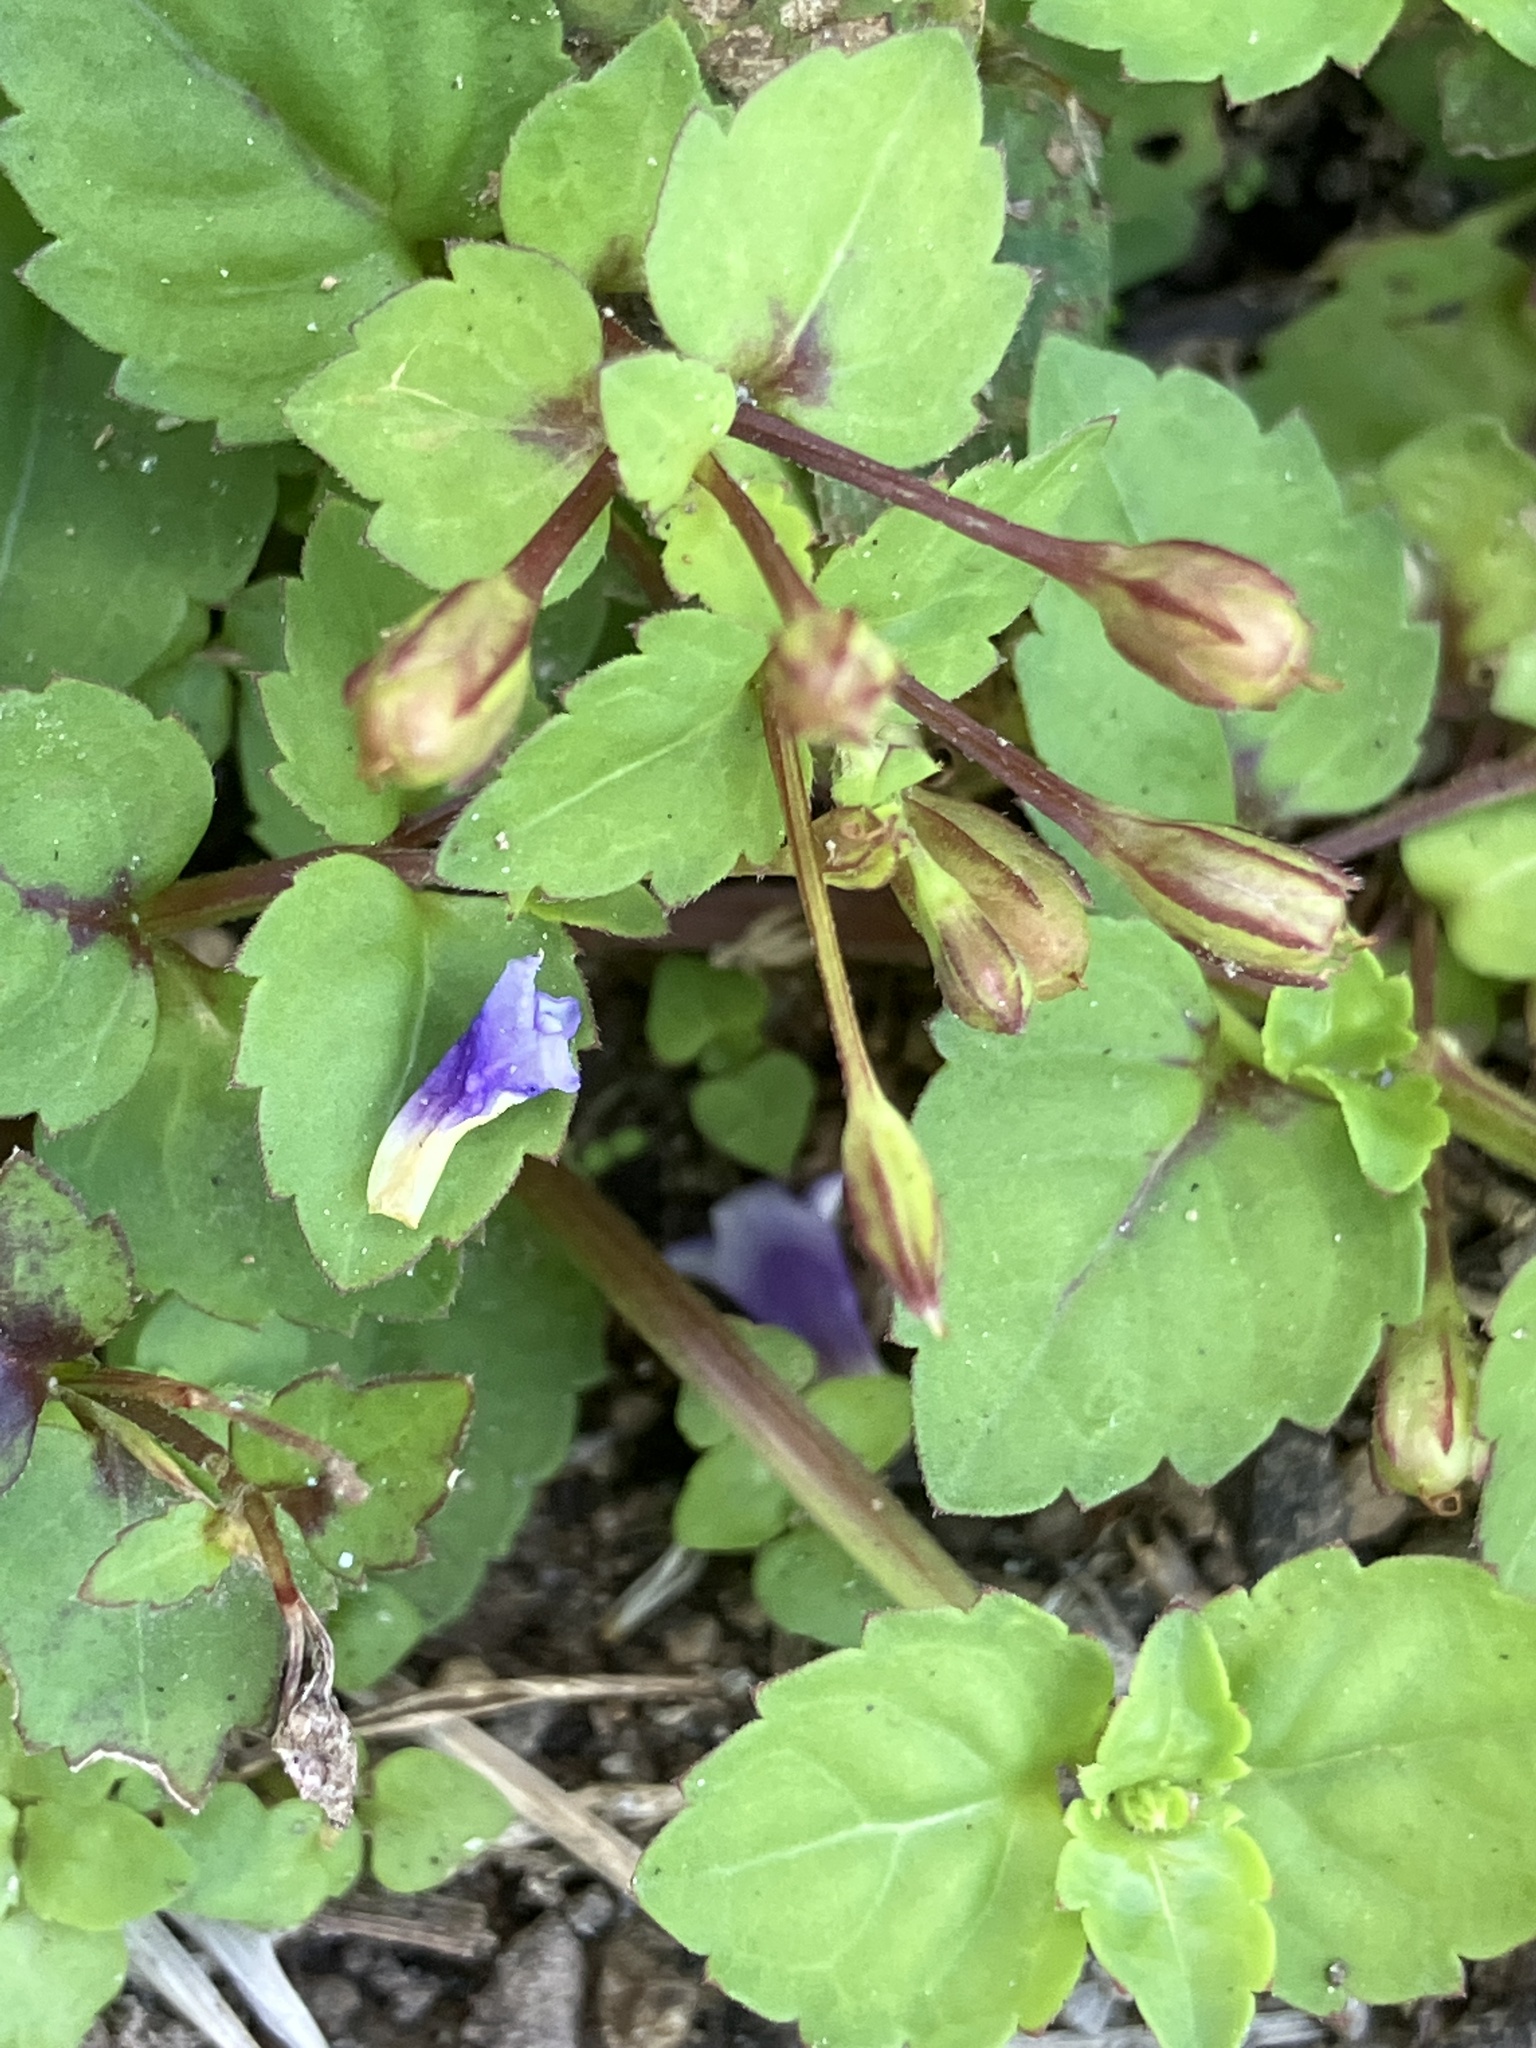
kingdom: Plantae
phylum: Tracheophyta
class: Magnoliopsida
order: Lamiales
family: Linderniaceae
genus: Torenia
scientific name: Torenia crustacea
